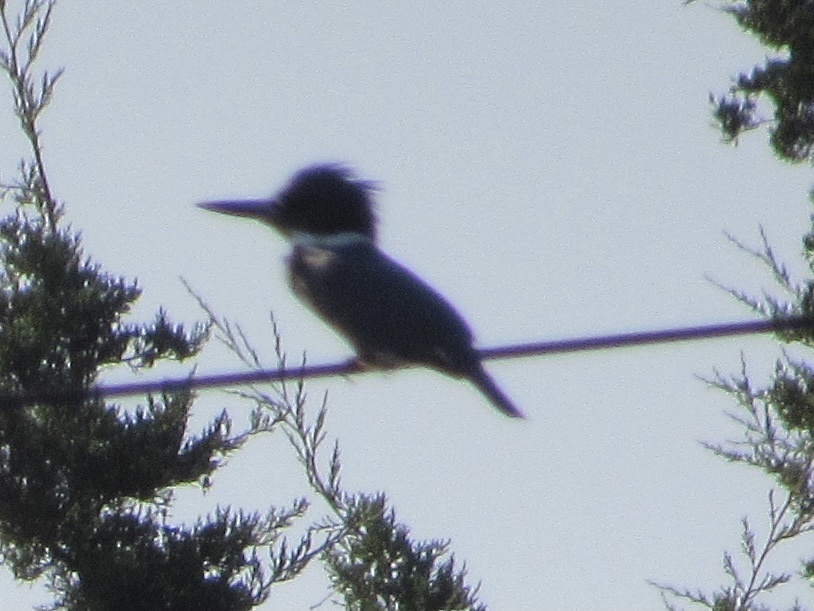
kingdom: Animalia
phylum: Chordata
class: Aves
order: Coraciiformes
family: Alcedinidae
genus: Megaceryle
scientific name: Megaceryle alcyon
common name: Belted kingfisher
